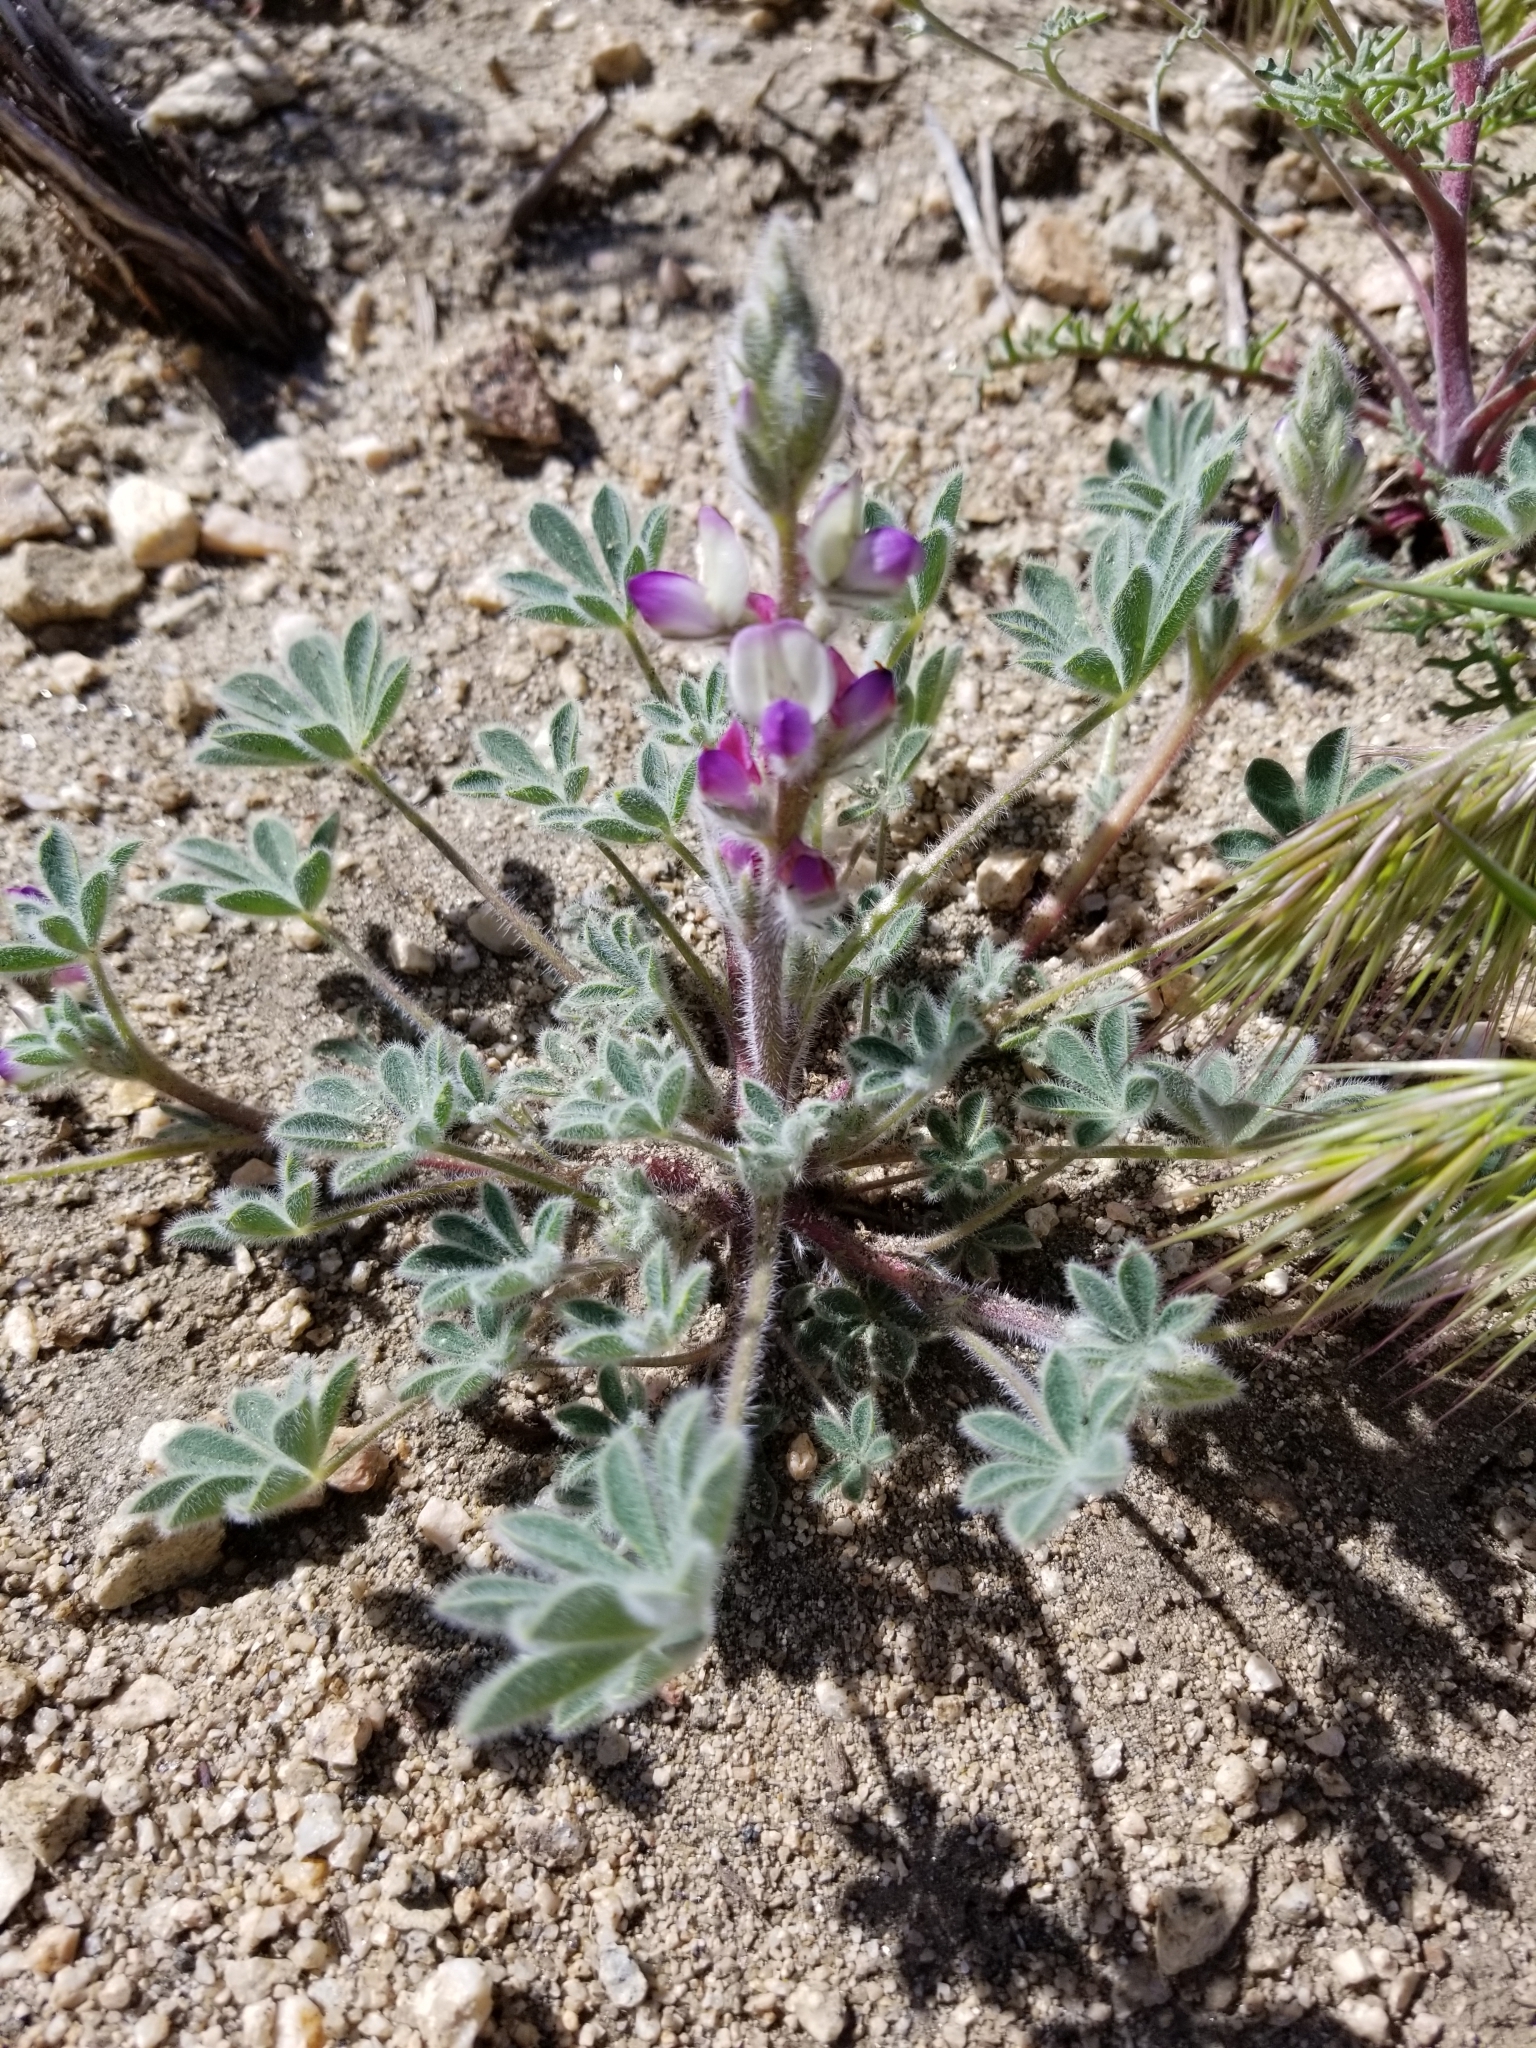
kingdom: Plantae
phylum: Tracheophyta
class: Magnoliopsida
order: Fabales
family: Fabaceae
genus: Lupinus
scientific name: Lupinus concinnus
